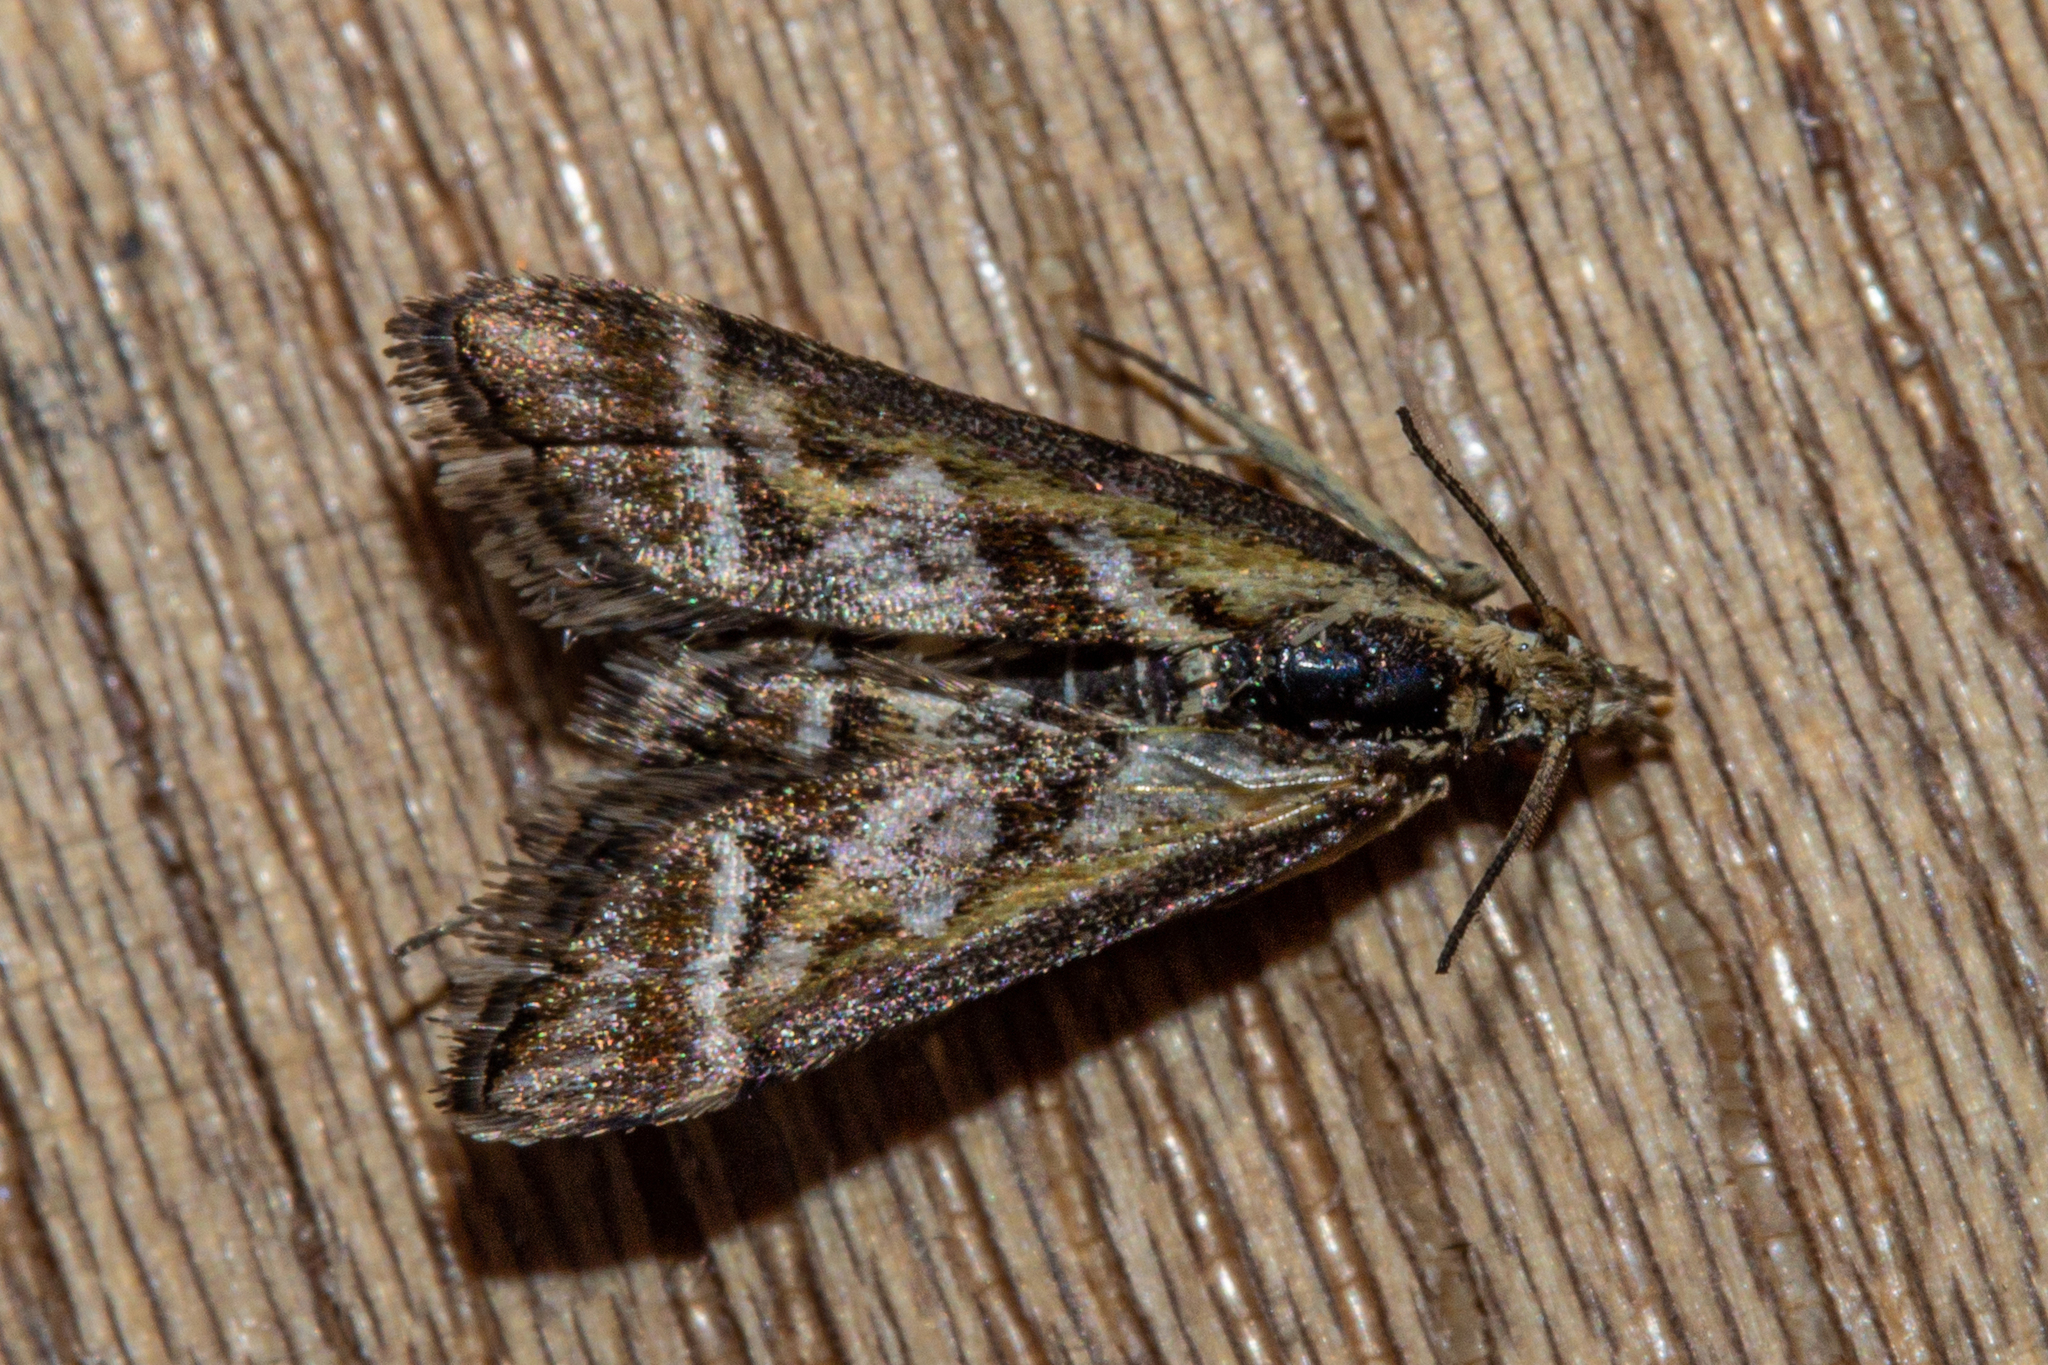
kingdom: Animalia
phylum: Arthropoda
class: Insecta
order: Lepidoptera
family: Crambidae
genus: Diasemia
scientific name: Diasemia grammalis
